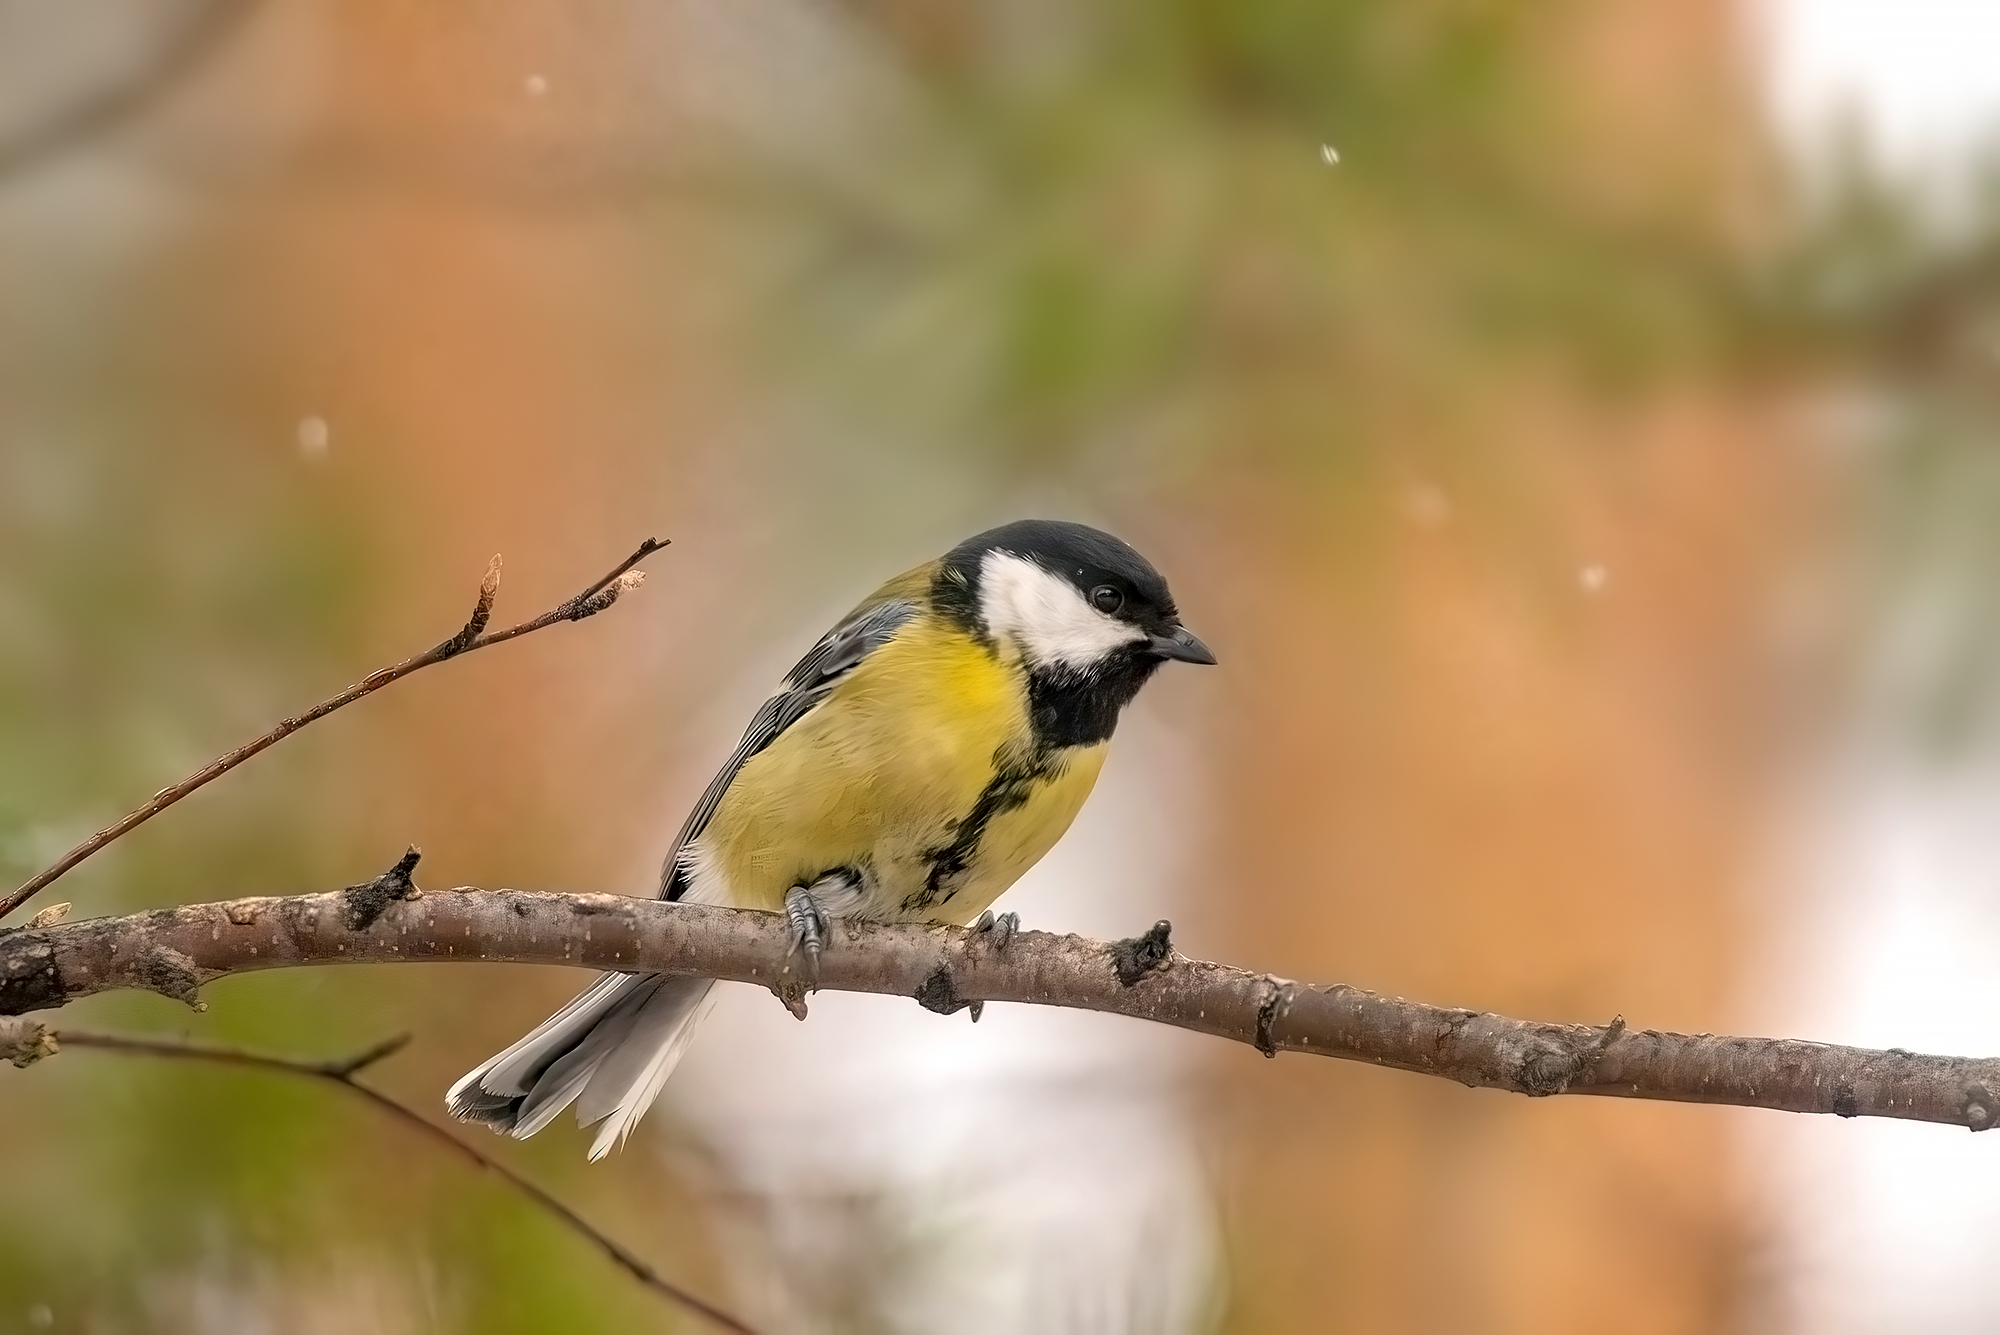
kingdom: Animalia
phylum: Chordata
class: Aves
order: Passeriformes
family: Paridae
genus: Parus
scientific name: Parus major
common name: Great tit
